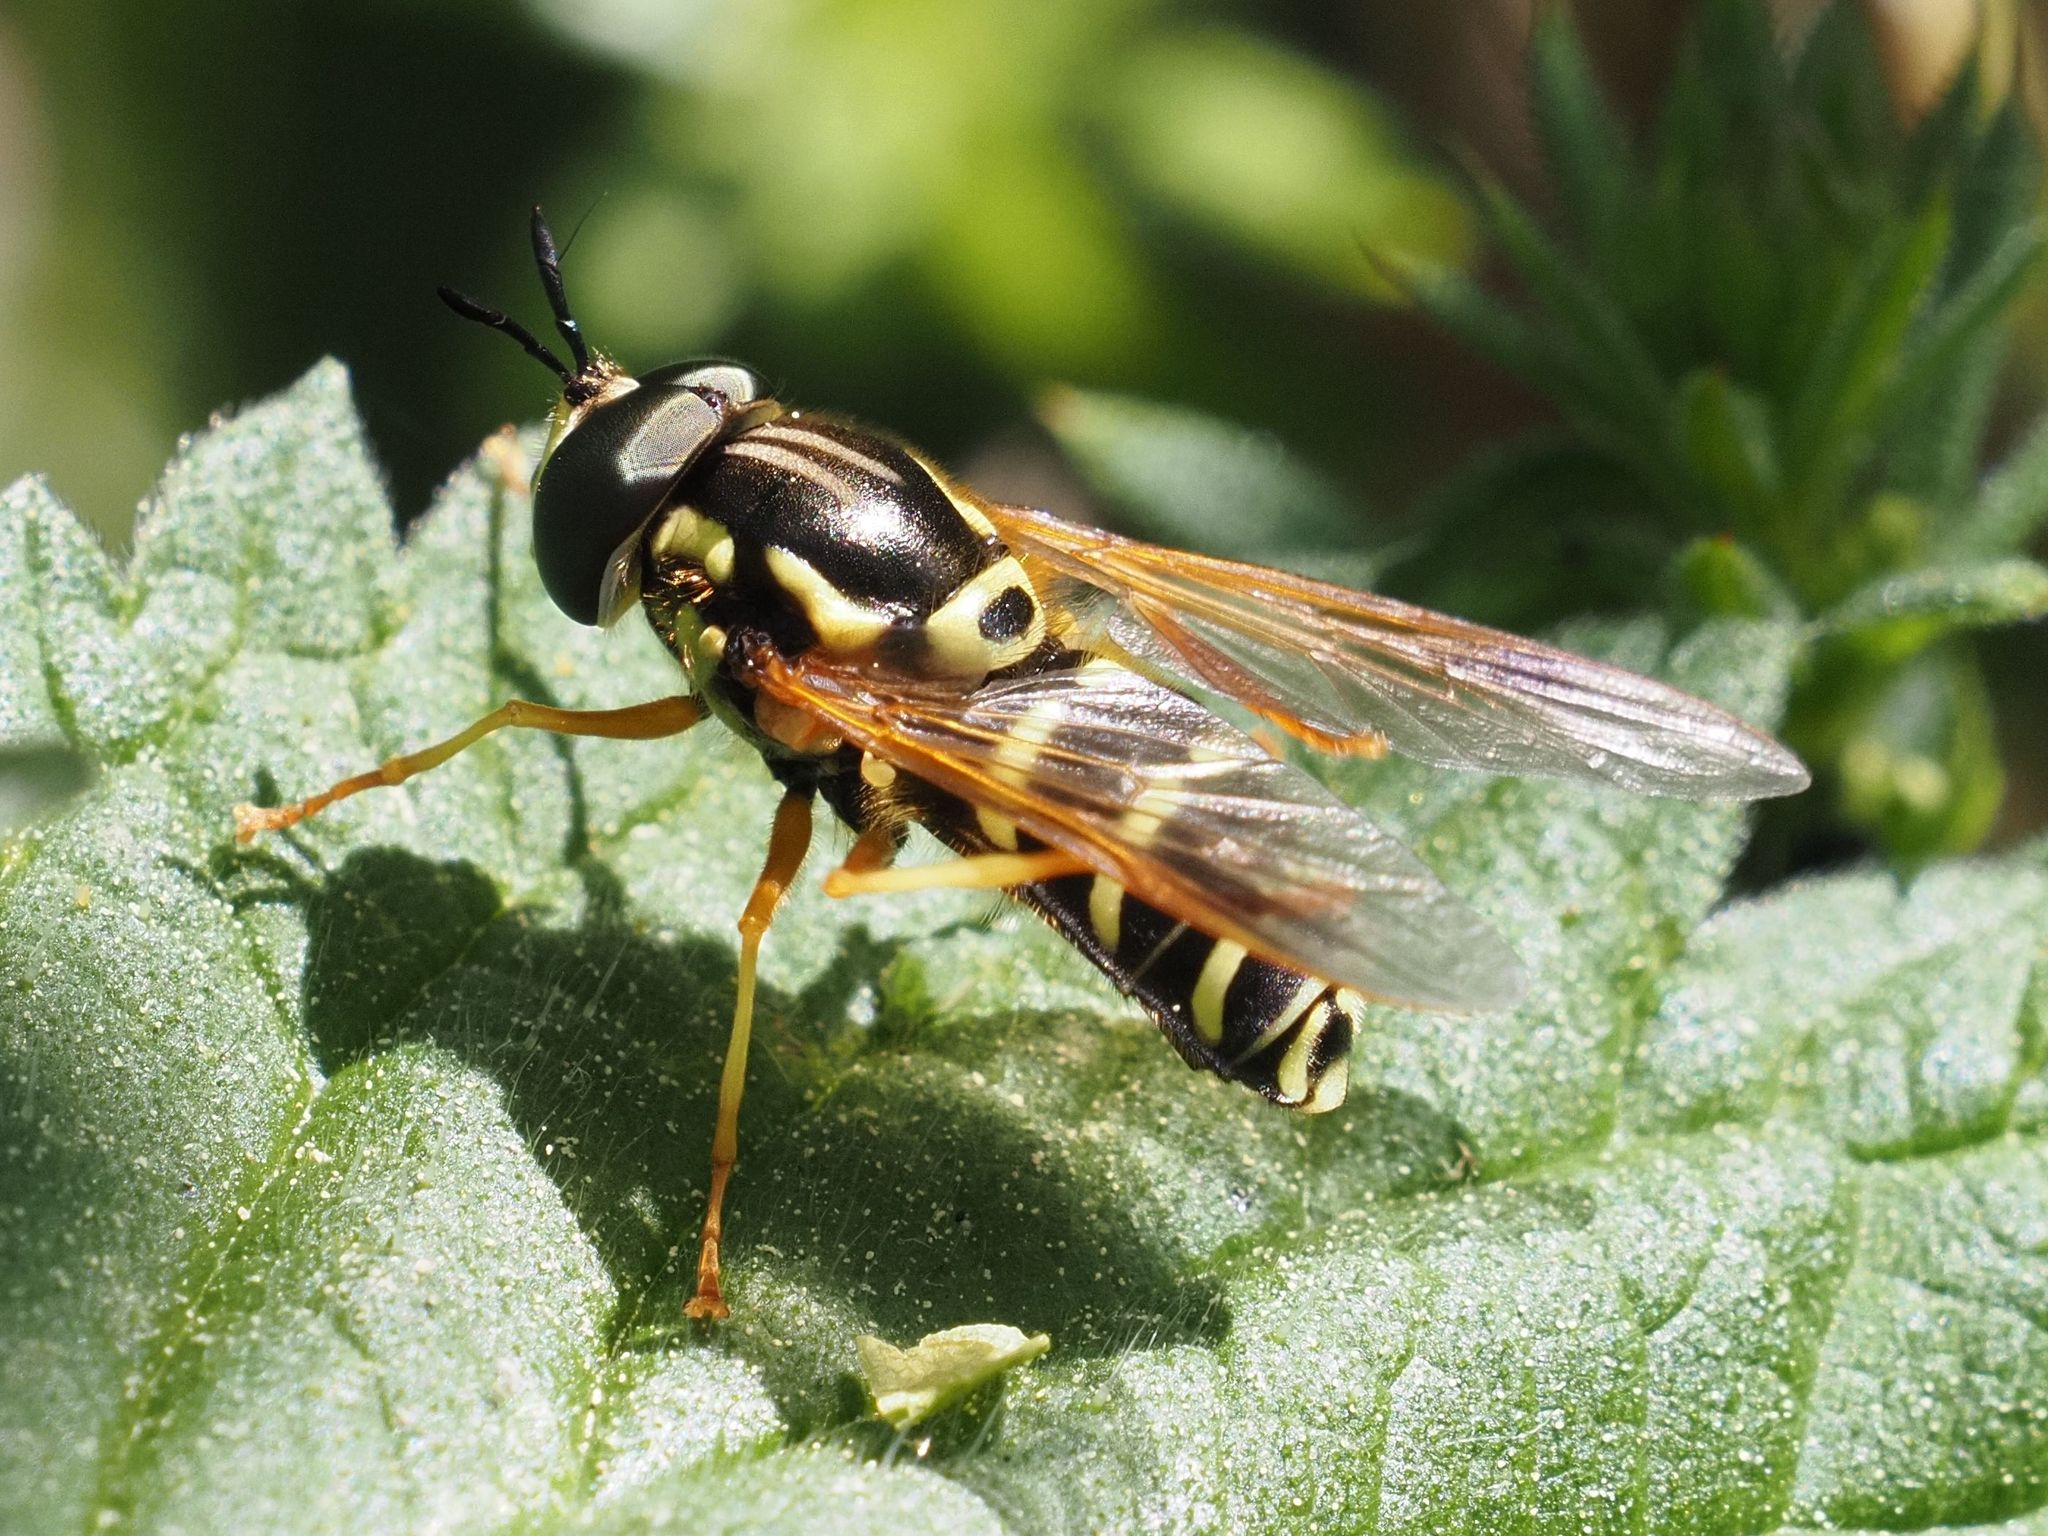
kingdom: Animalia
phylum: Arthropoda
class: Insecta
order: Diptera
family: Syrphidae
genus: Chrysotoxum
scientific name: Chrysotoxum festivum
